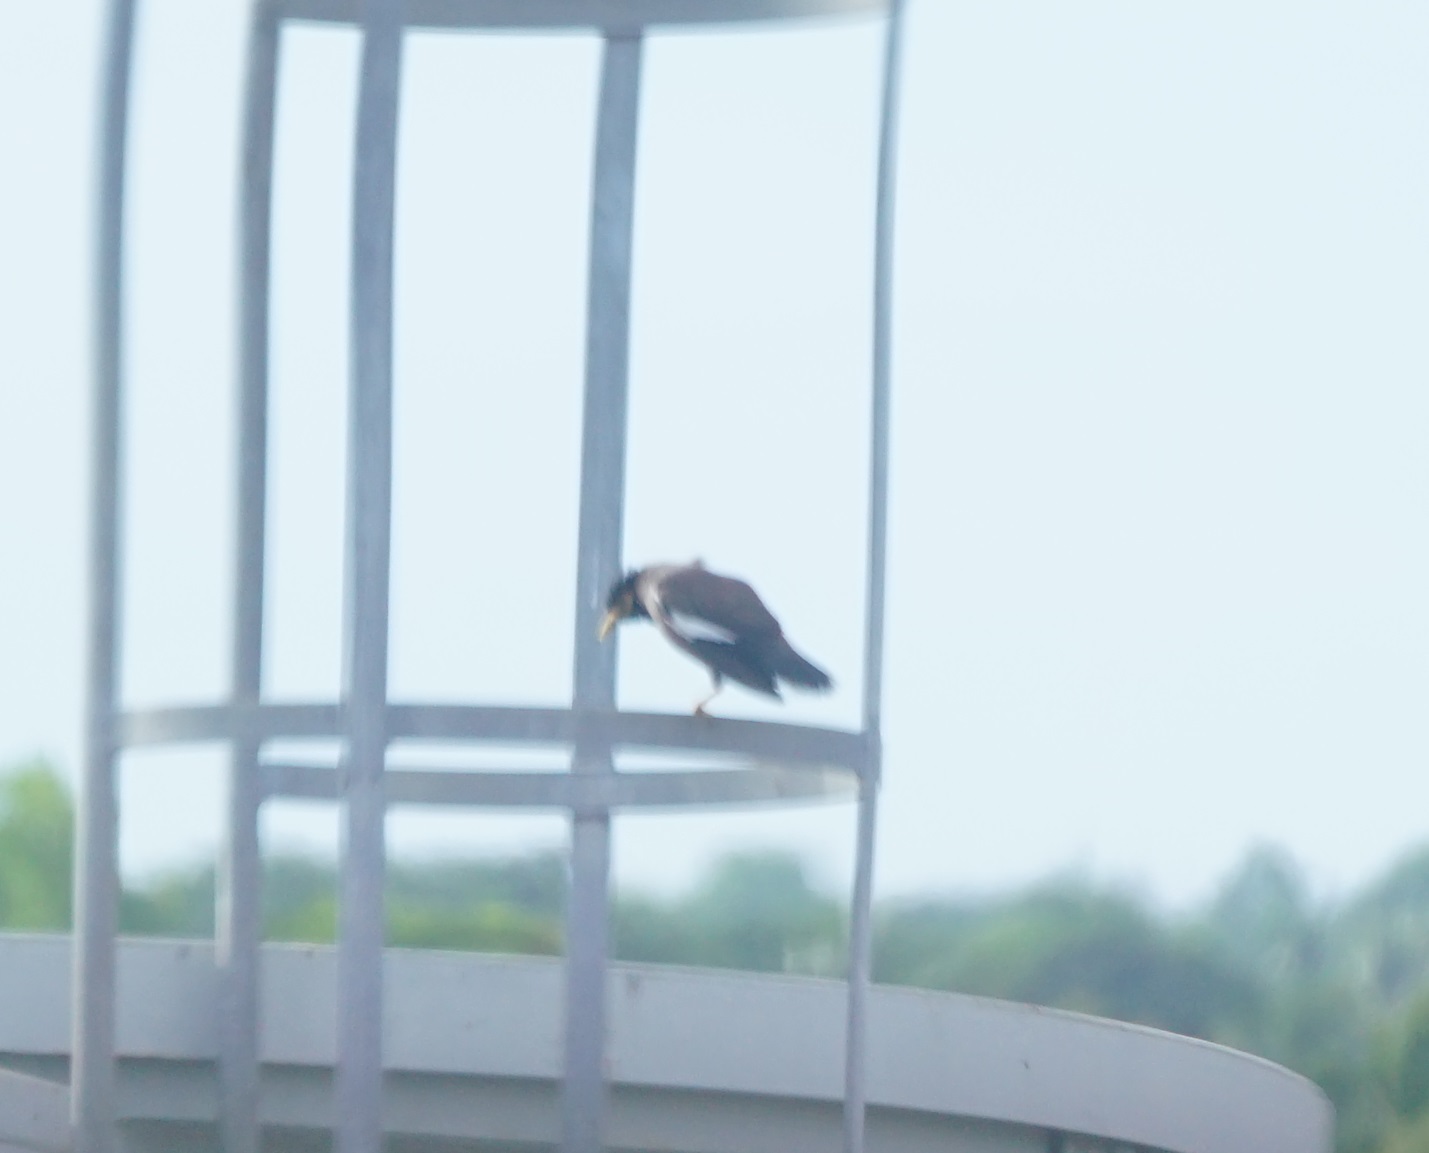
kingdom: Animalia
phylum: Chordata
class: Aves
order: Passeriformes
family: Sturnidae
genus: Acridotheres
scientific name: Acridotheres tristis
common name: Common myna
